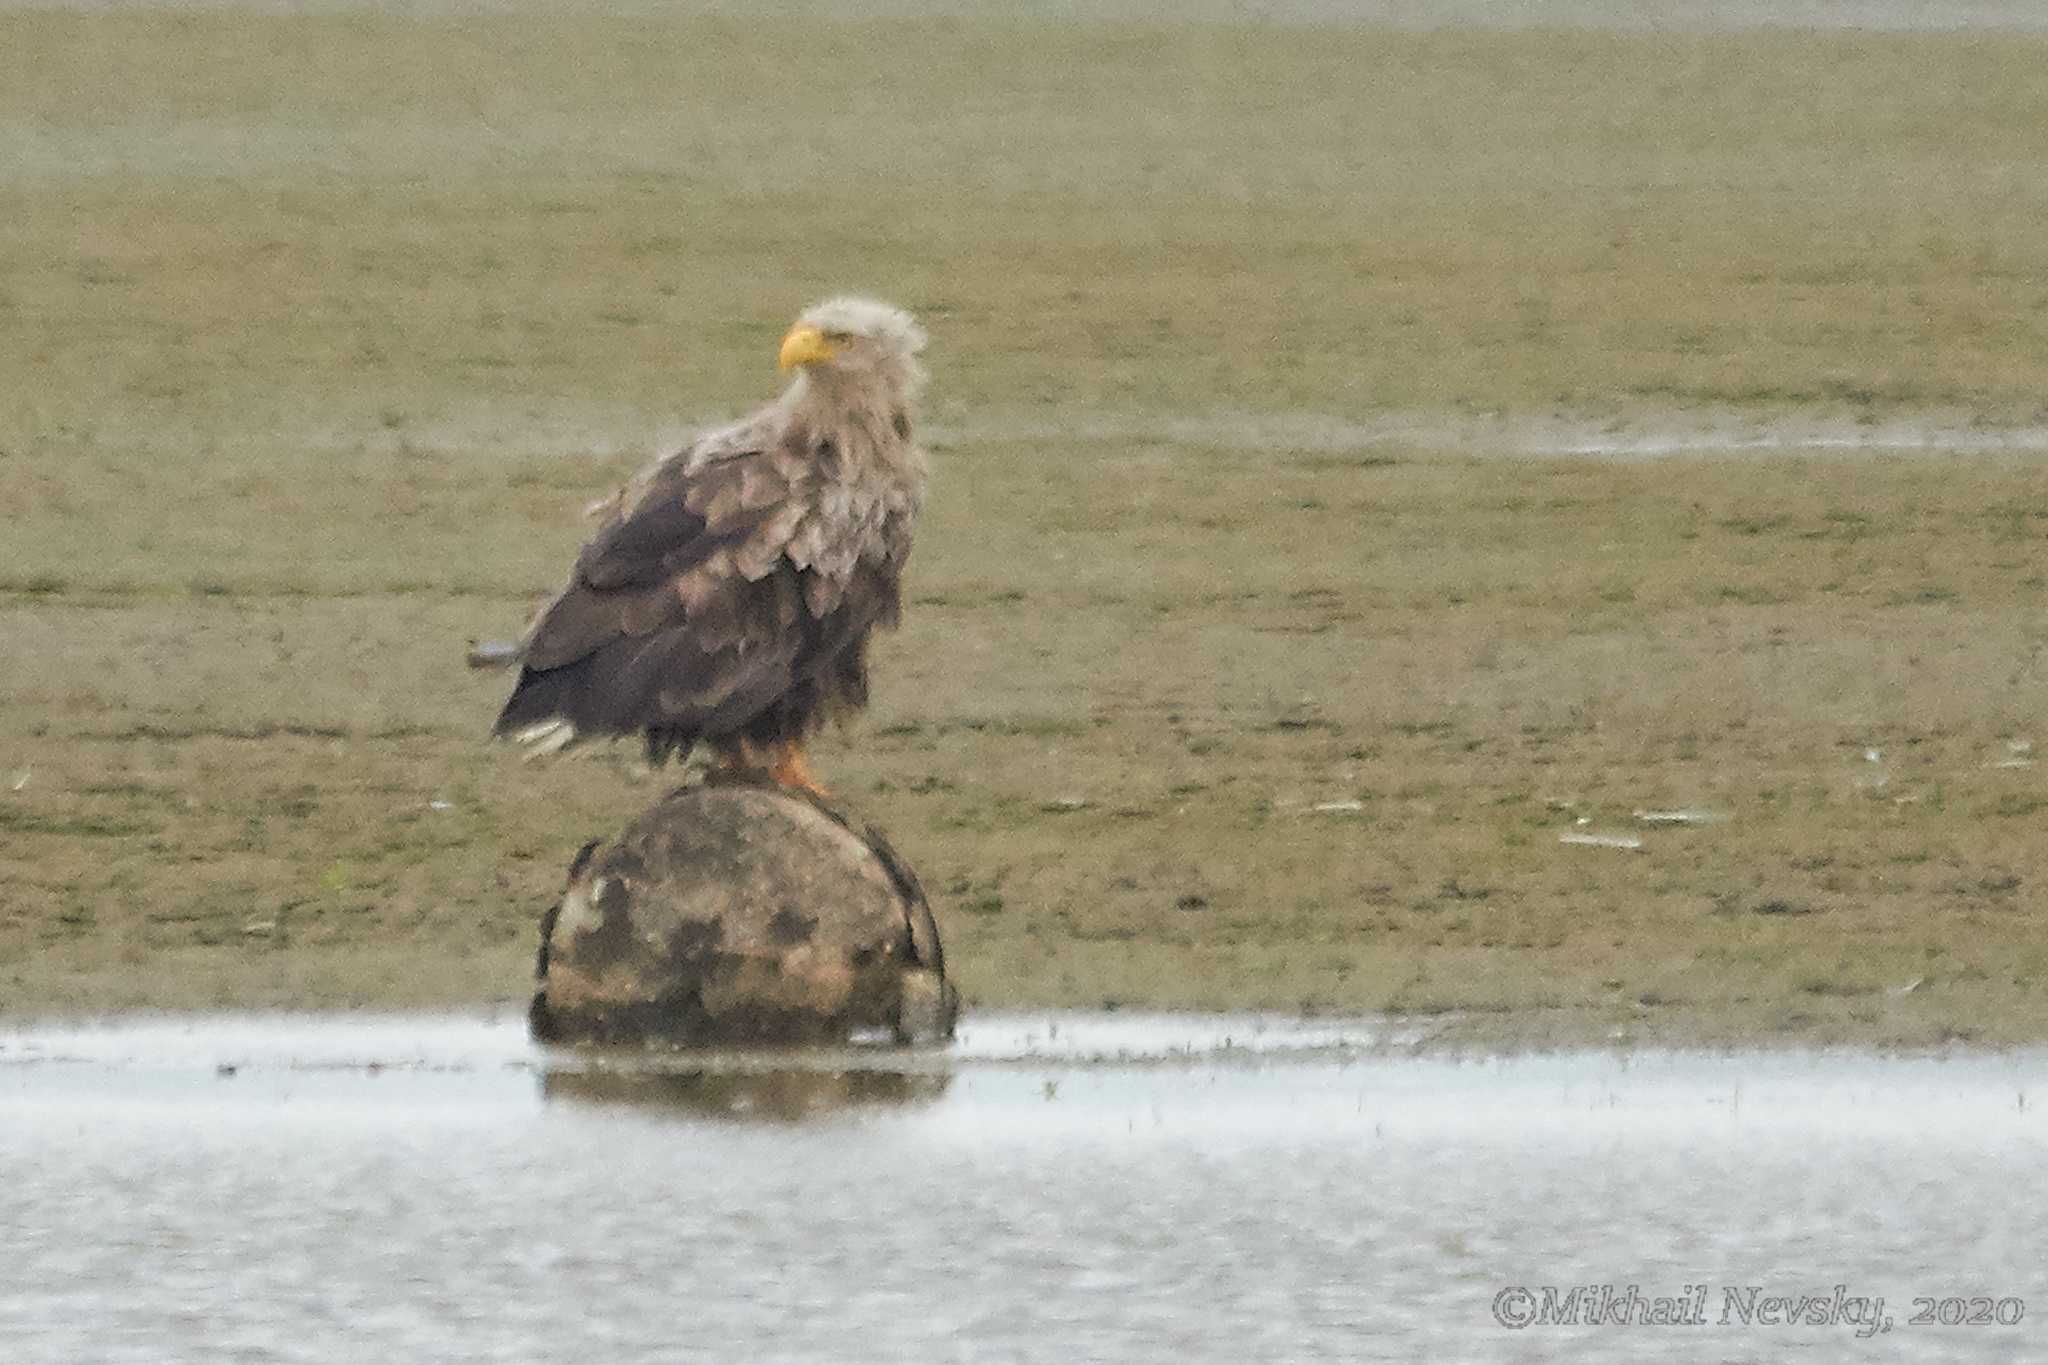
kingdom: Animalia
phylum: Chordata
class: Aves
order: Accipitriformes
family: Accipitridae
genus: Haliaeetus
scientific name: Haliaeetus albicilla
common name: White-tailed eagle
